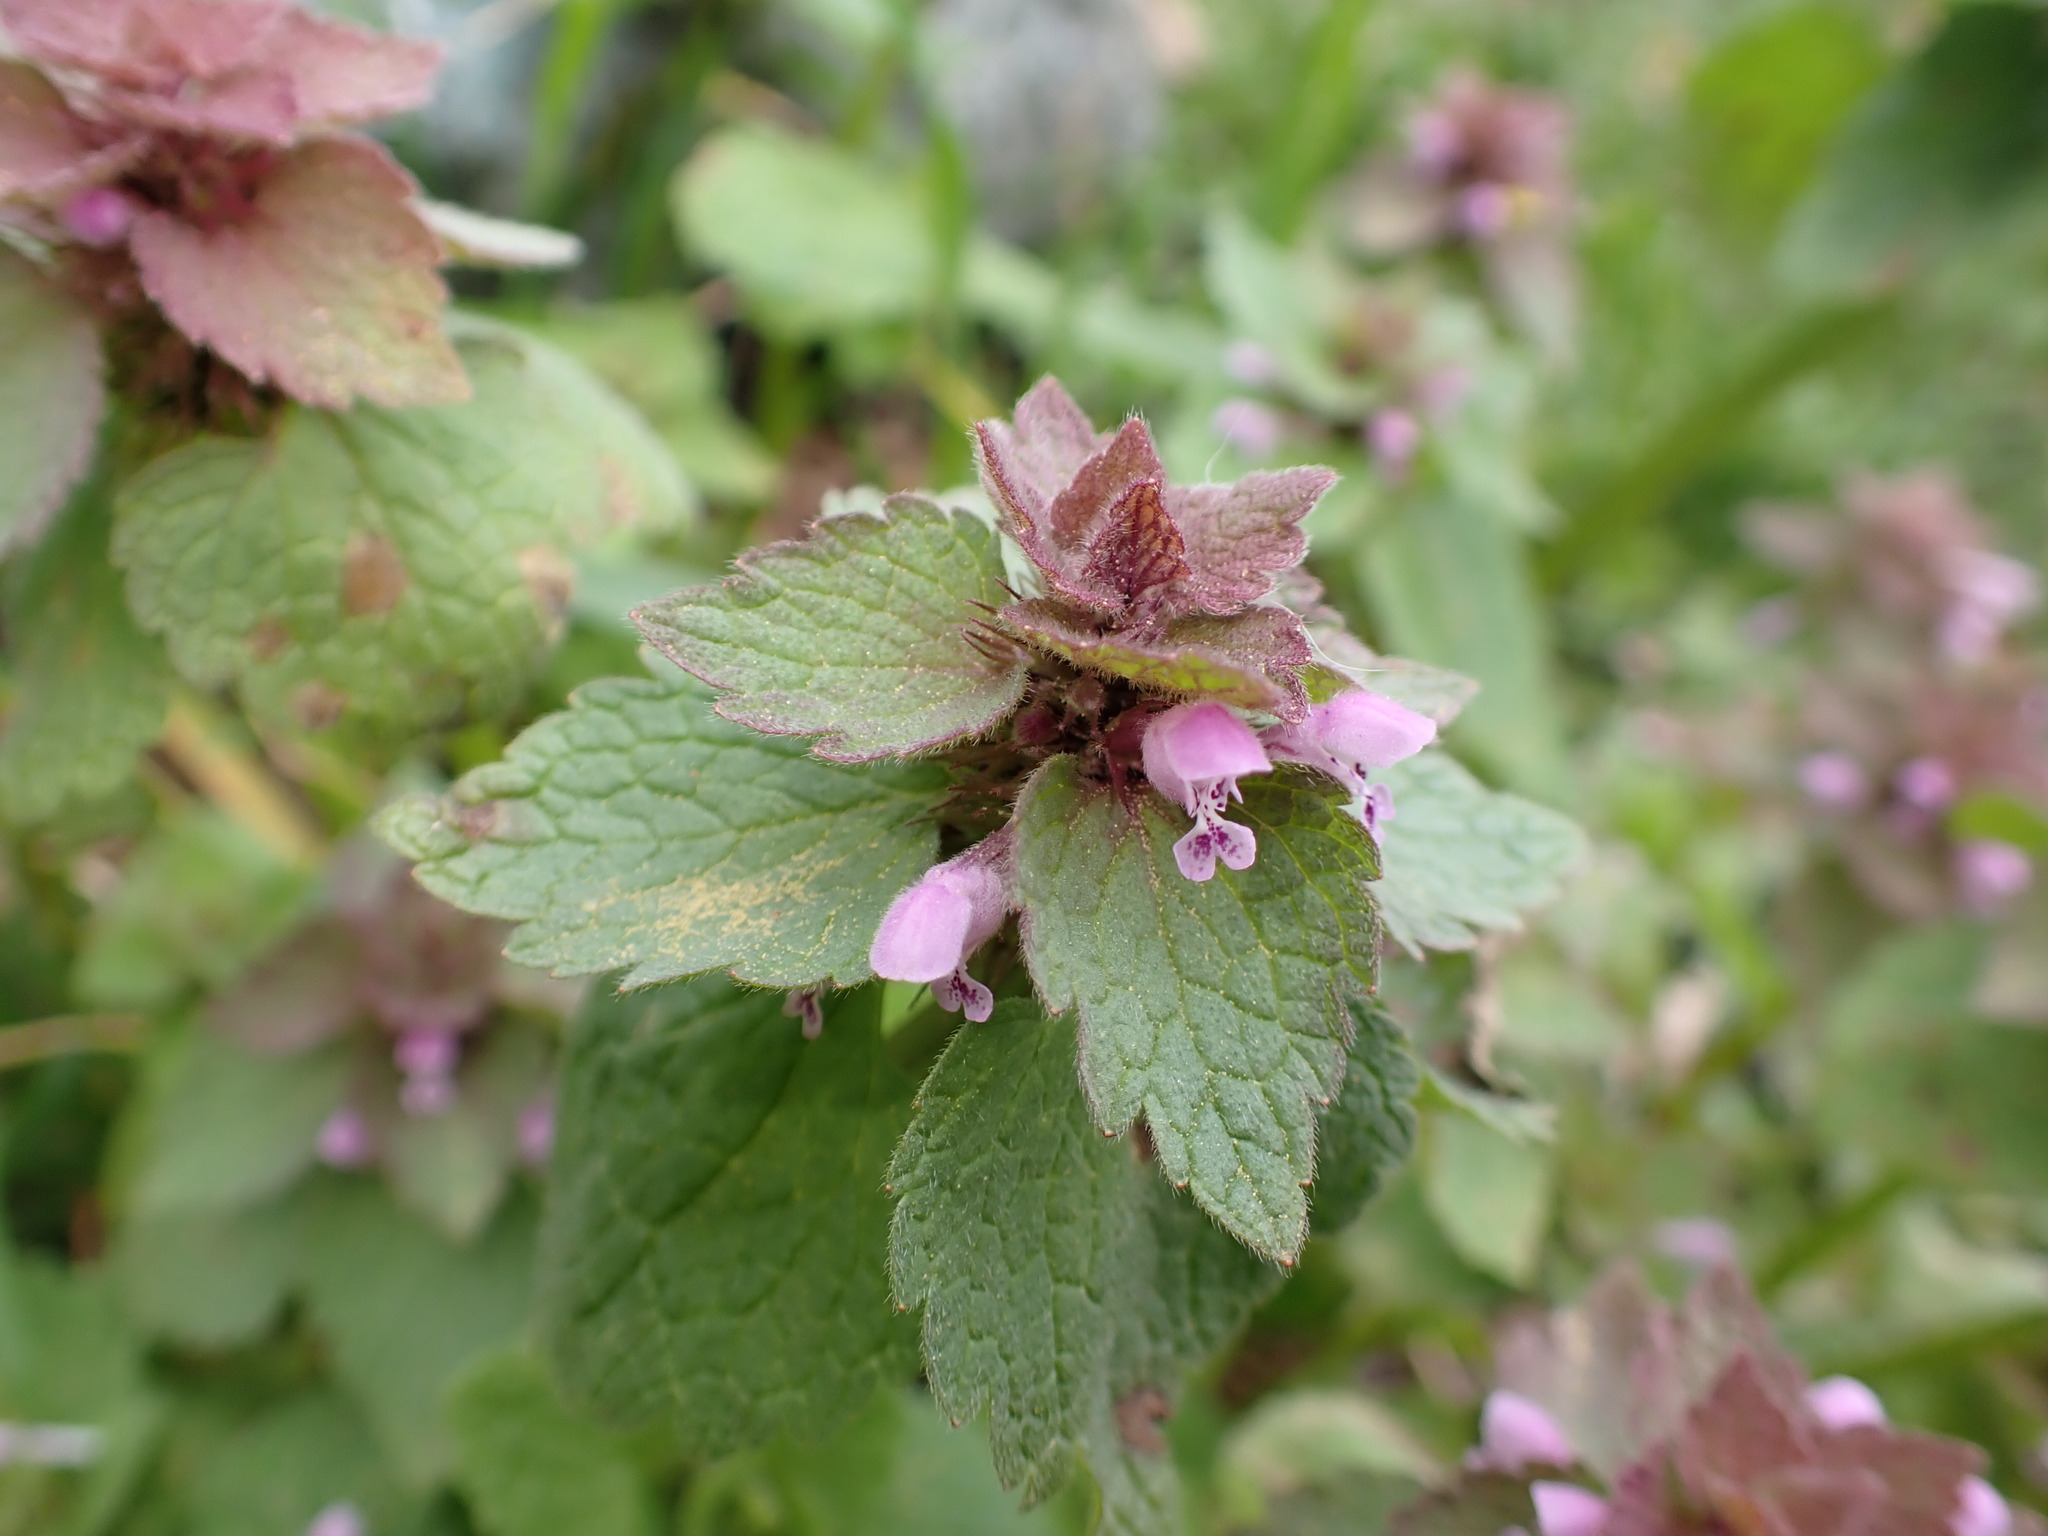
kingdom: Plantae
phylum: Tracheophyta
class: Magnoliopsida
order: Lamiales
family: Lamiaceae
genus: Lamium
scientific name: Lamium purpureum
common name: Red dead-nettle
